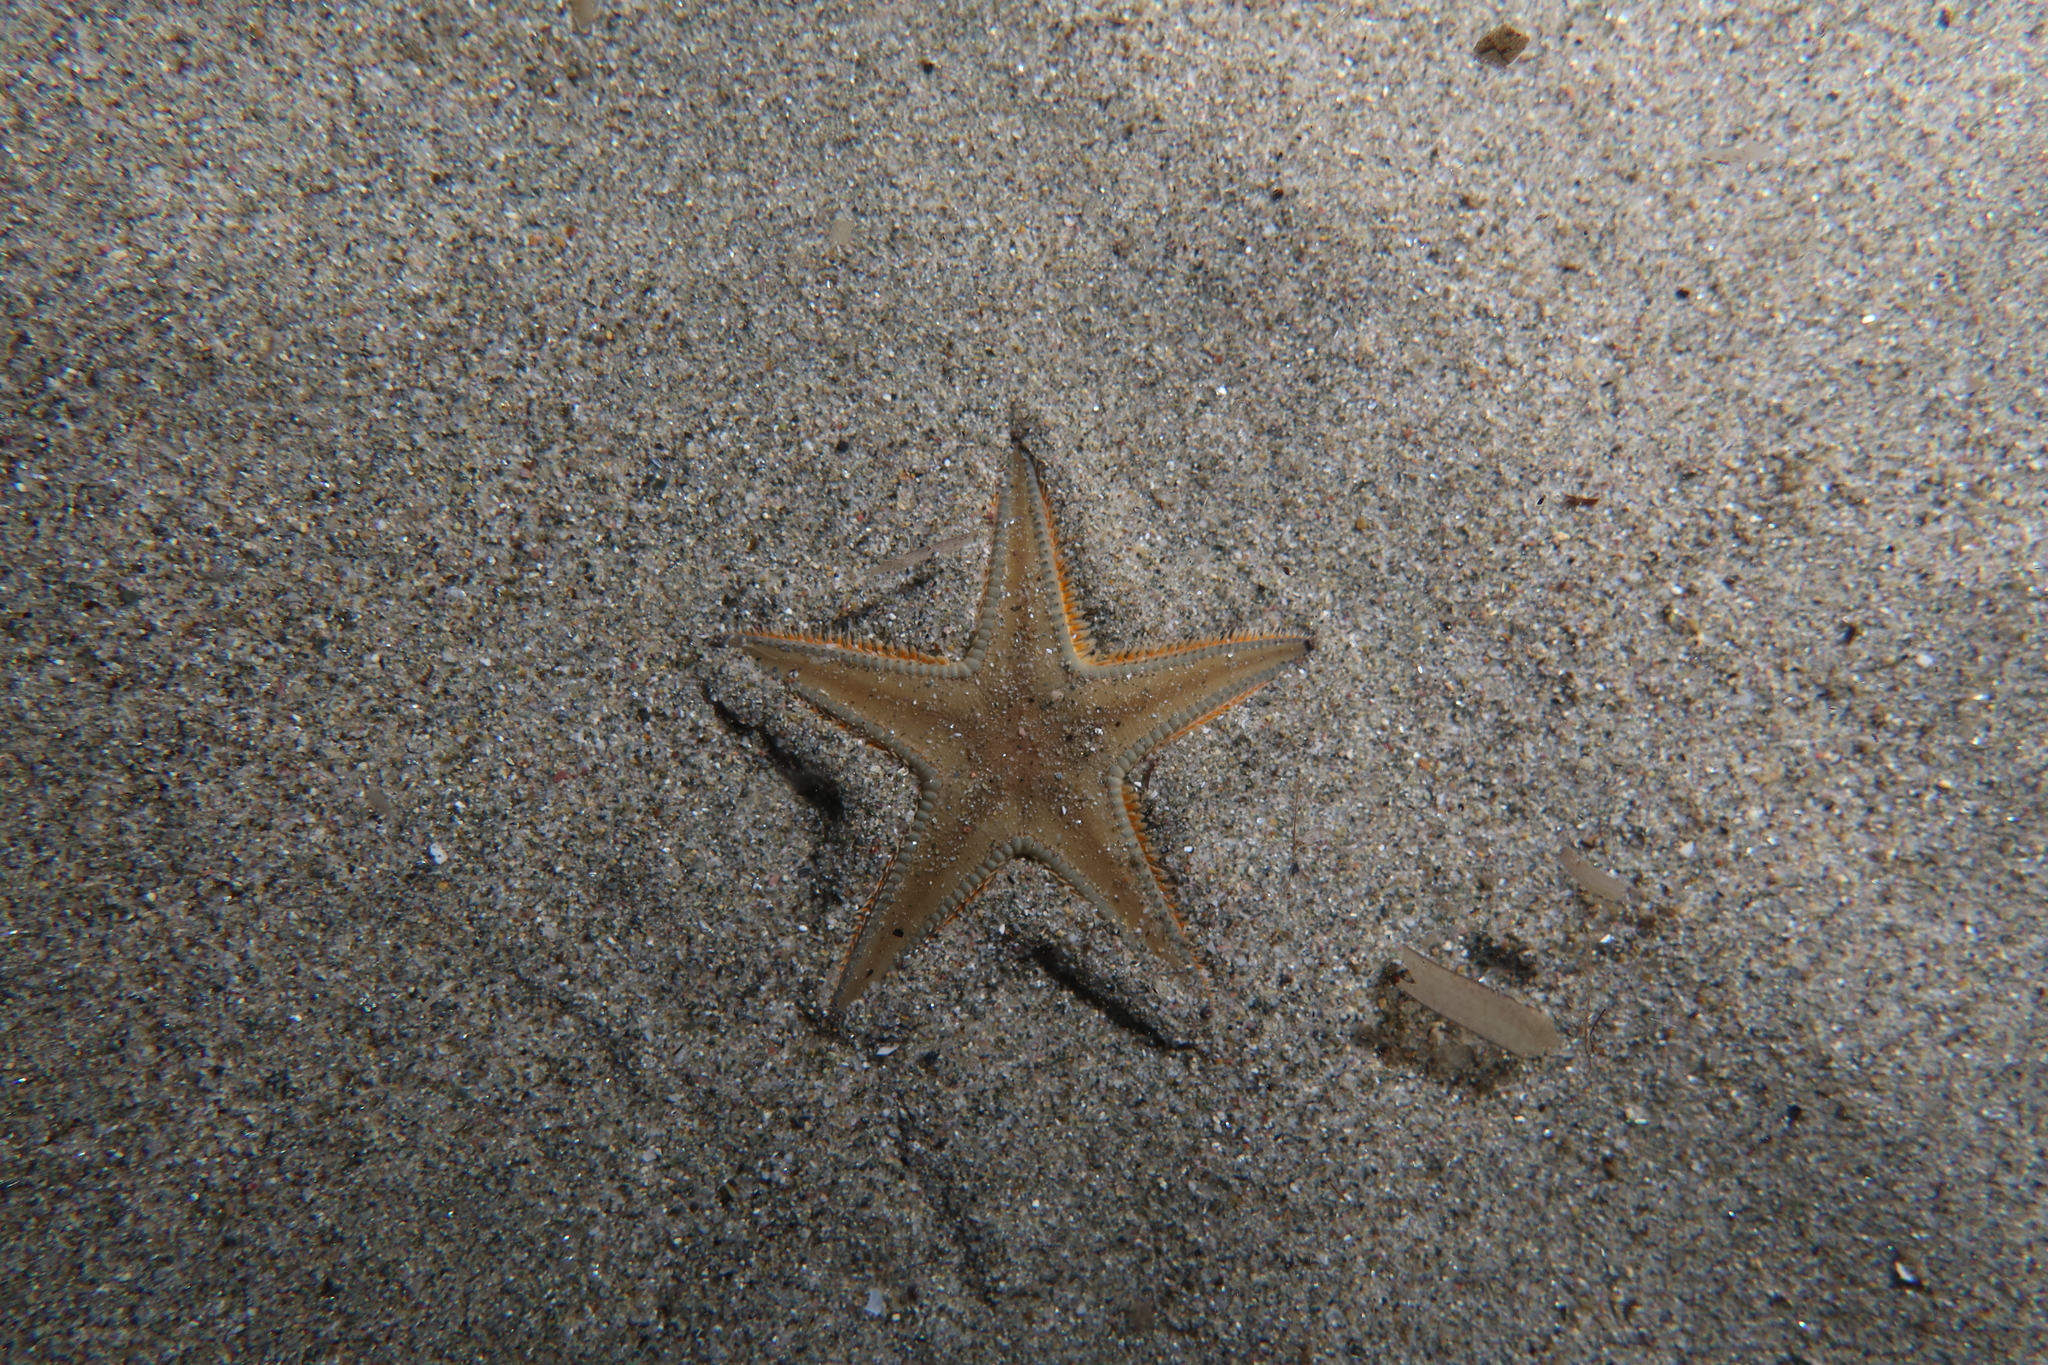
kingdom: Animalia
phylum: Echinodermata
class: Asteroidea
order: Paxillosida
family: Astropectinidae
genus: Astropecten
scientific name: Astropecten jonstoni
